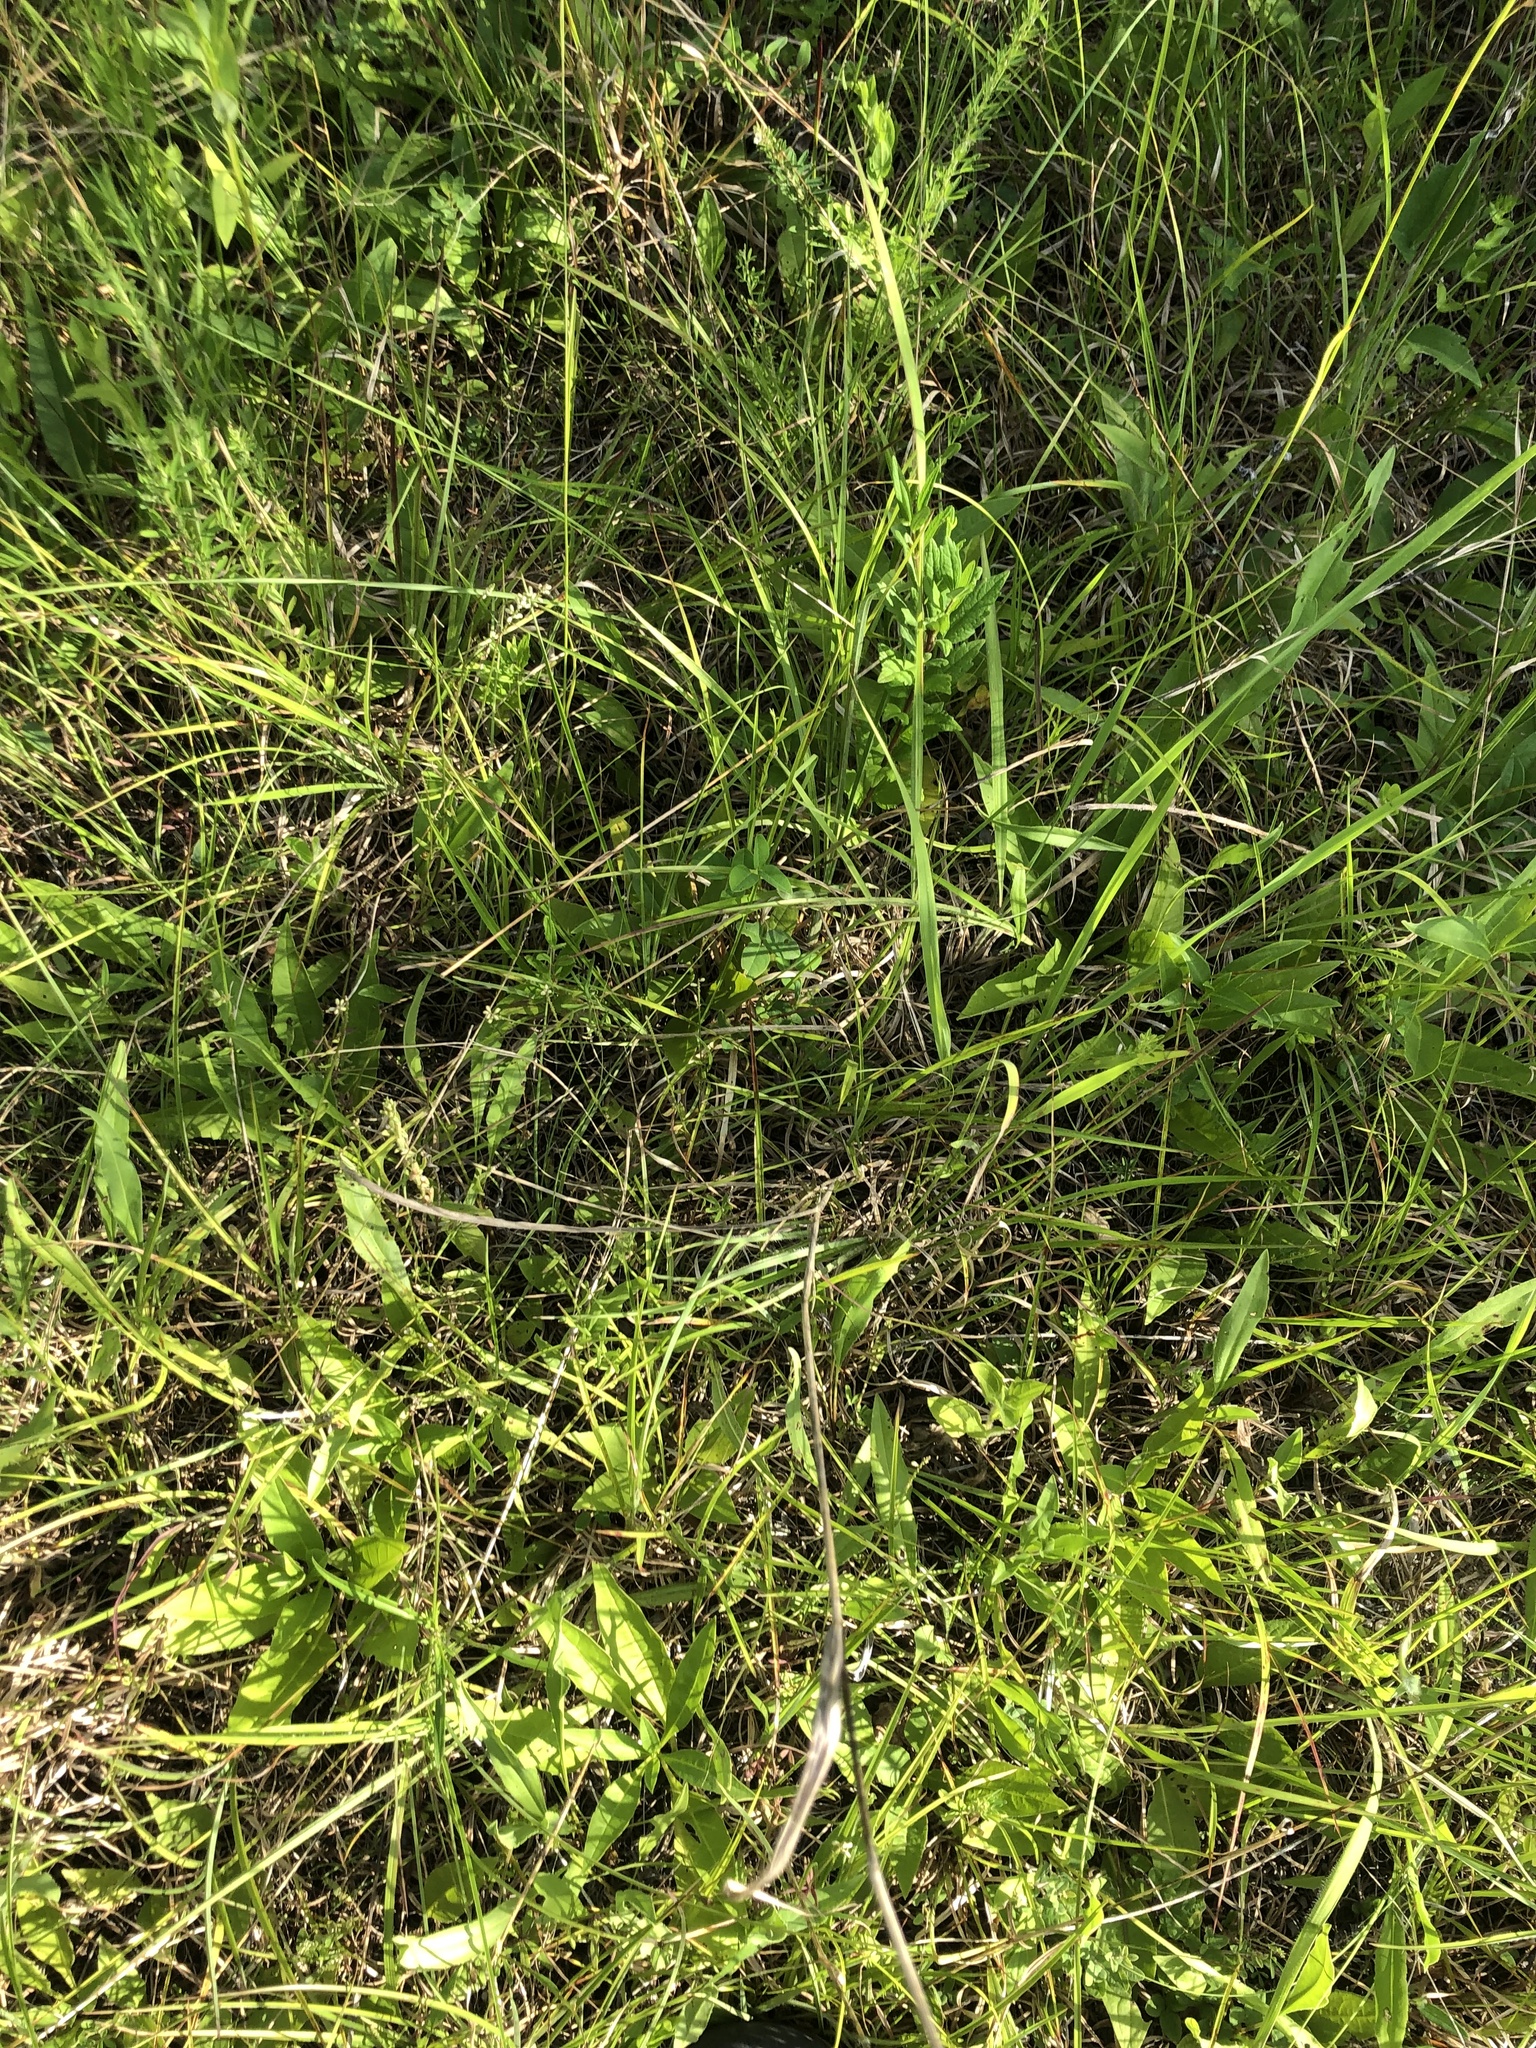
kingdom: Plantae
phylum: Tracheophyta
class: Liliopsida
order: Poales
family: Poaceae
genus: Sorghastrum
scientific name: Sorghastrum nutans
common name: Indian grass
